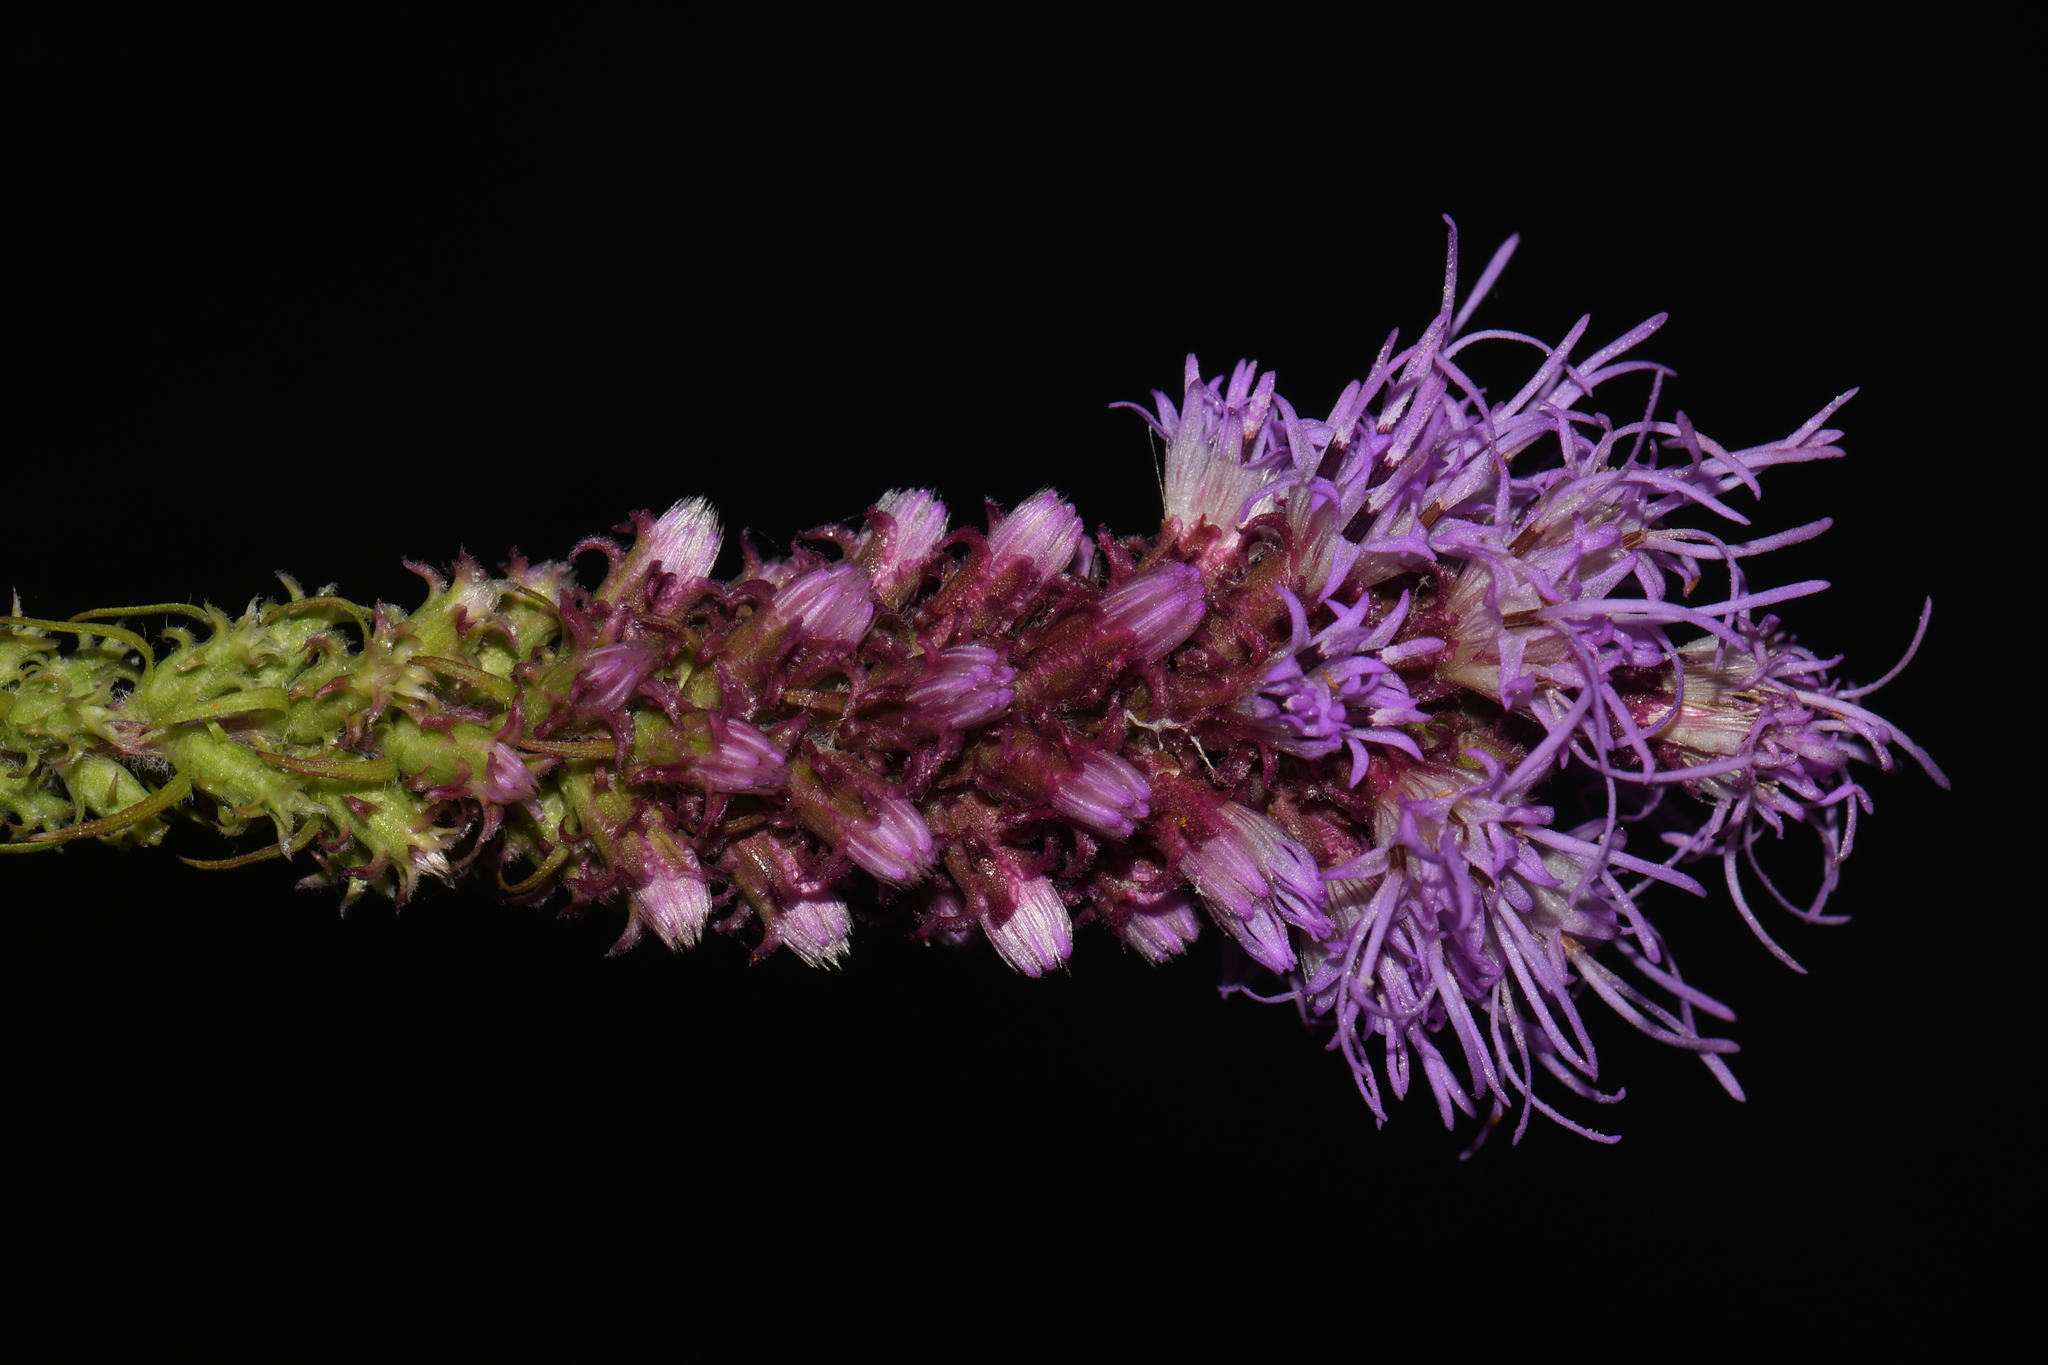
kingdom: Plantae
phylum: Tracheophyta
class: Magnoliopsida
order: Asterales
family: Asteraceae
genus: Liatris
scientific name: Liatris pycnostachya
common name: Cattail gayfeather
